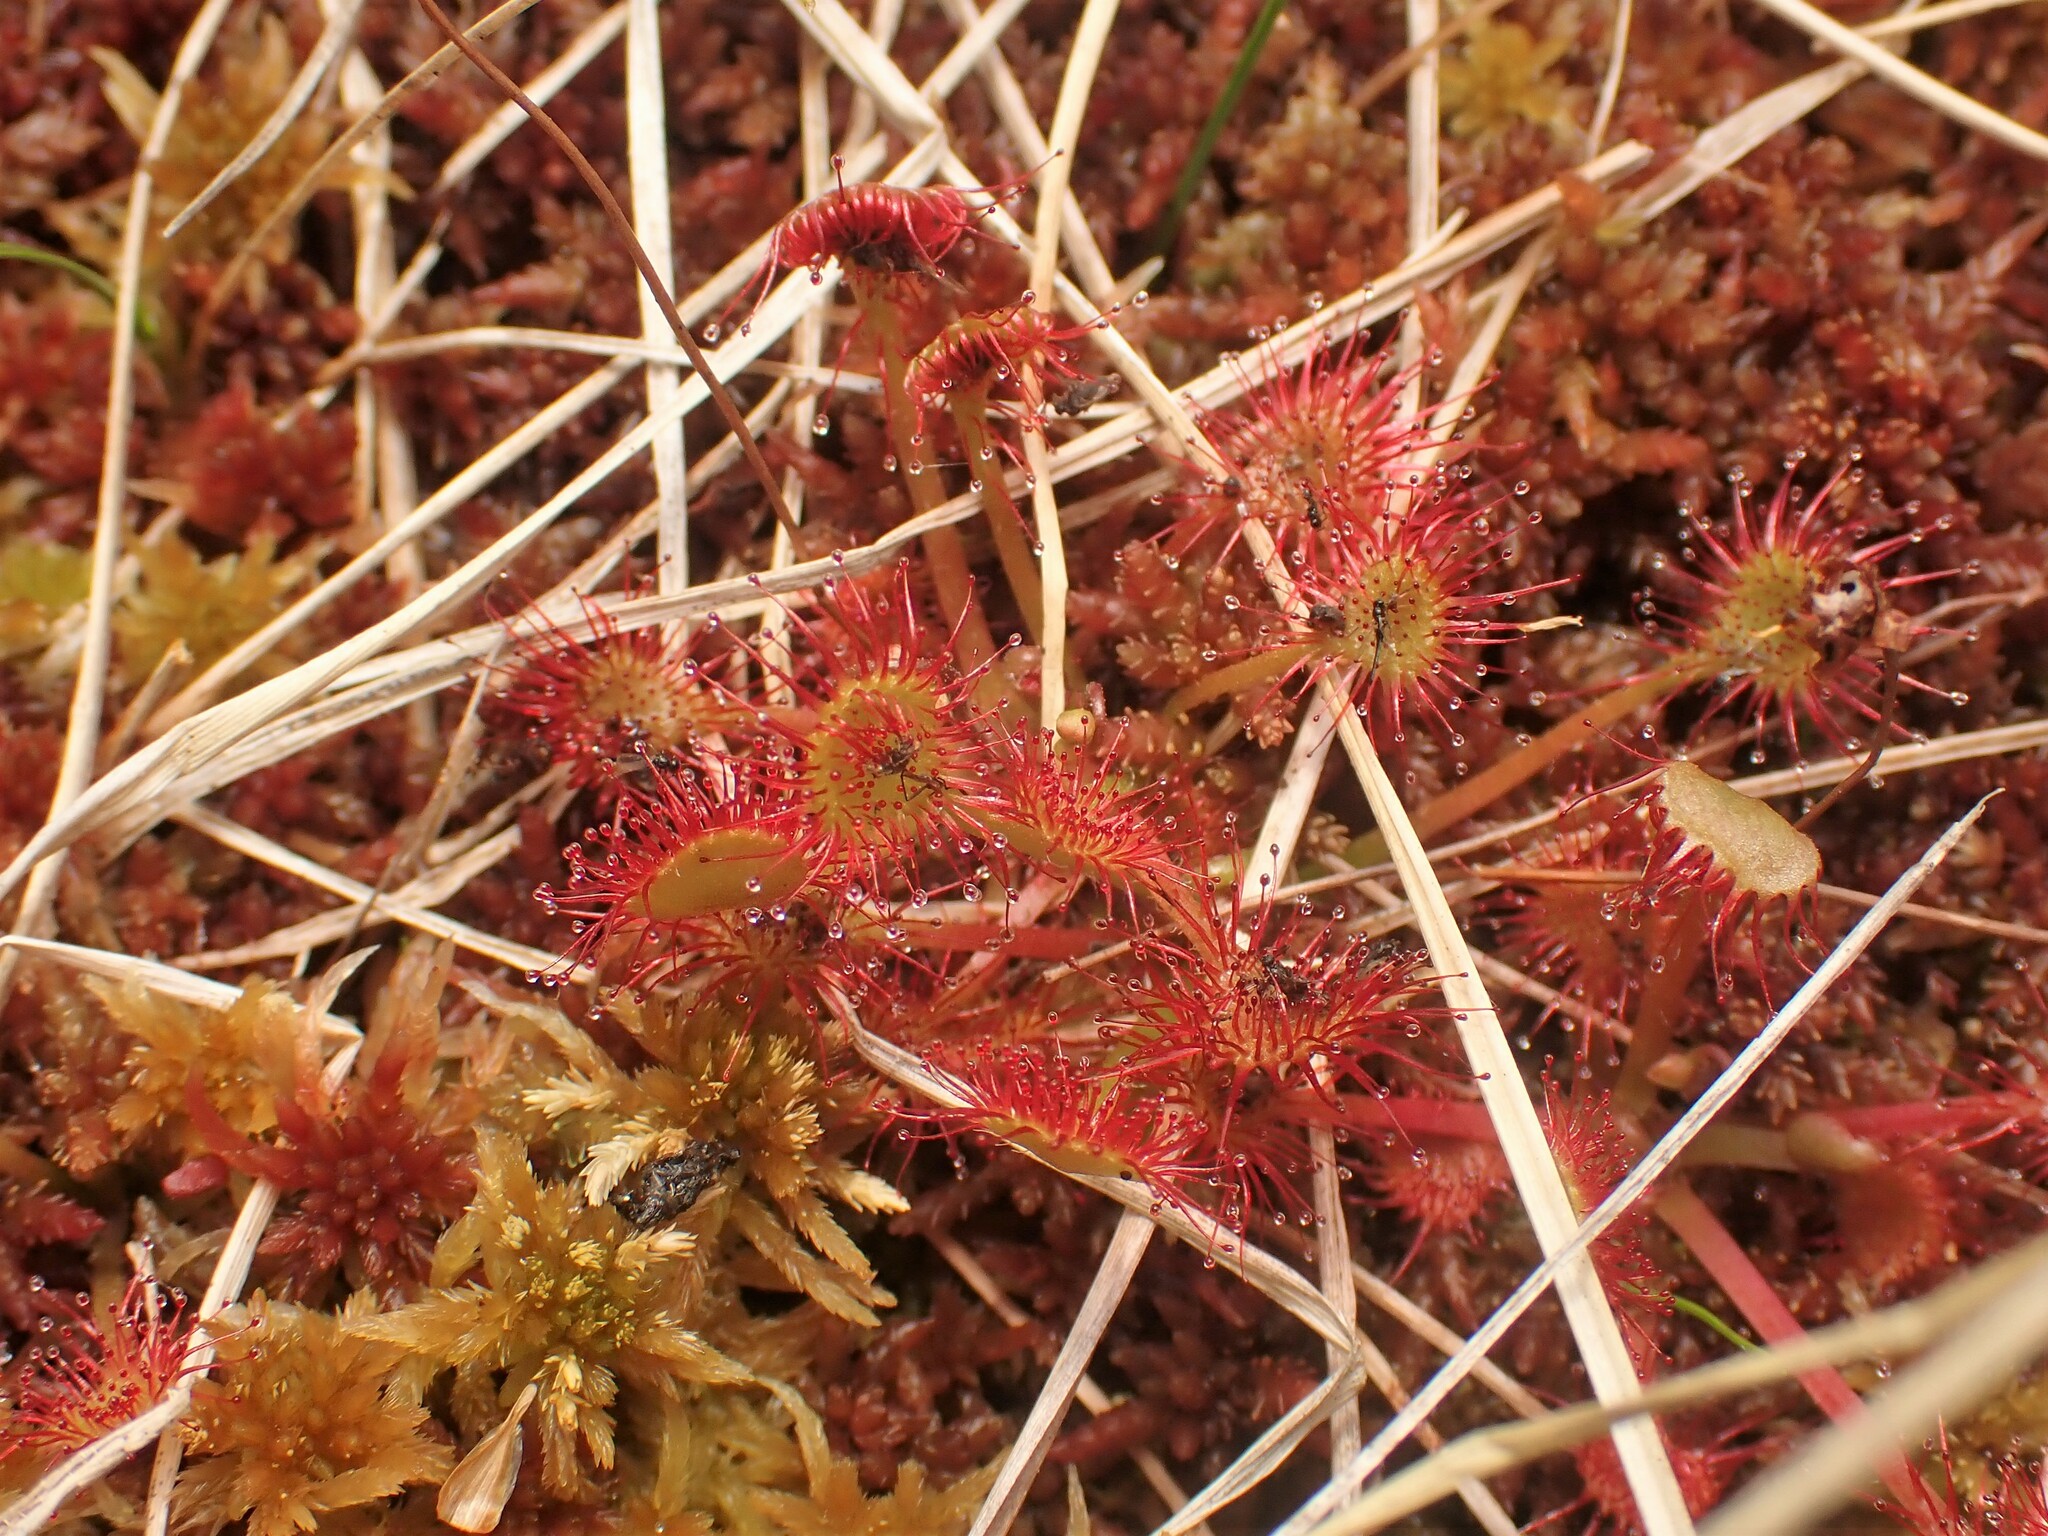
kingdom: Plantae
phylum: Tracheophyta
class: Magnoliopsida
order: Caryophyllales
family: Droseraceae
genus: Drosera
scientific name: Drosera rotundifolia
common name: Round-leaved sundew
